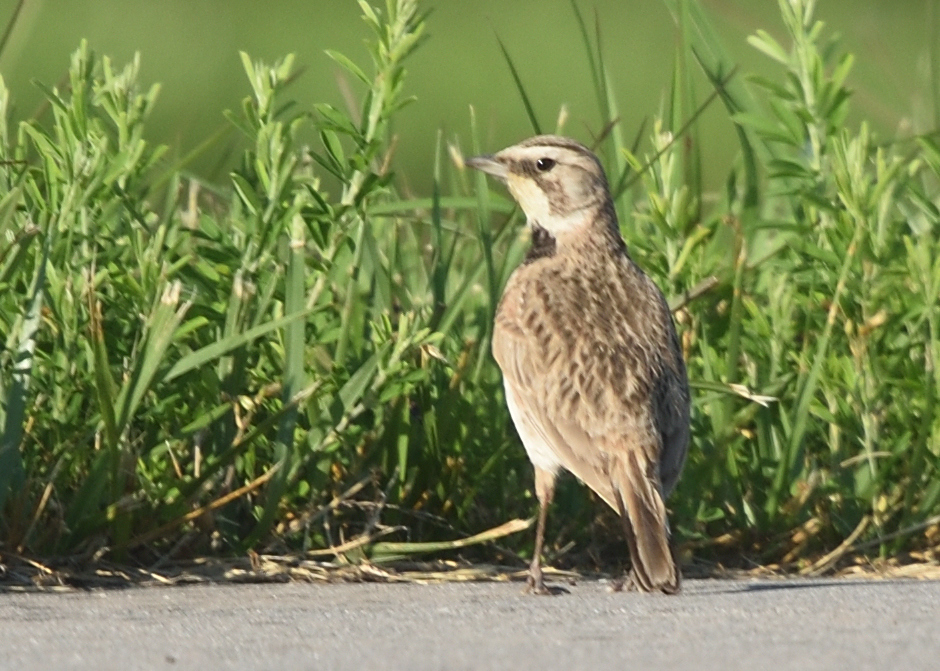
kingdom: Animalia
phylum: Chordata
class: Aves
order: Passeriformes
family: Alaudidae
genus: Eremophila
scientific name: Eremophila alpestris
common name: Horned lark
